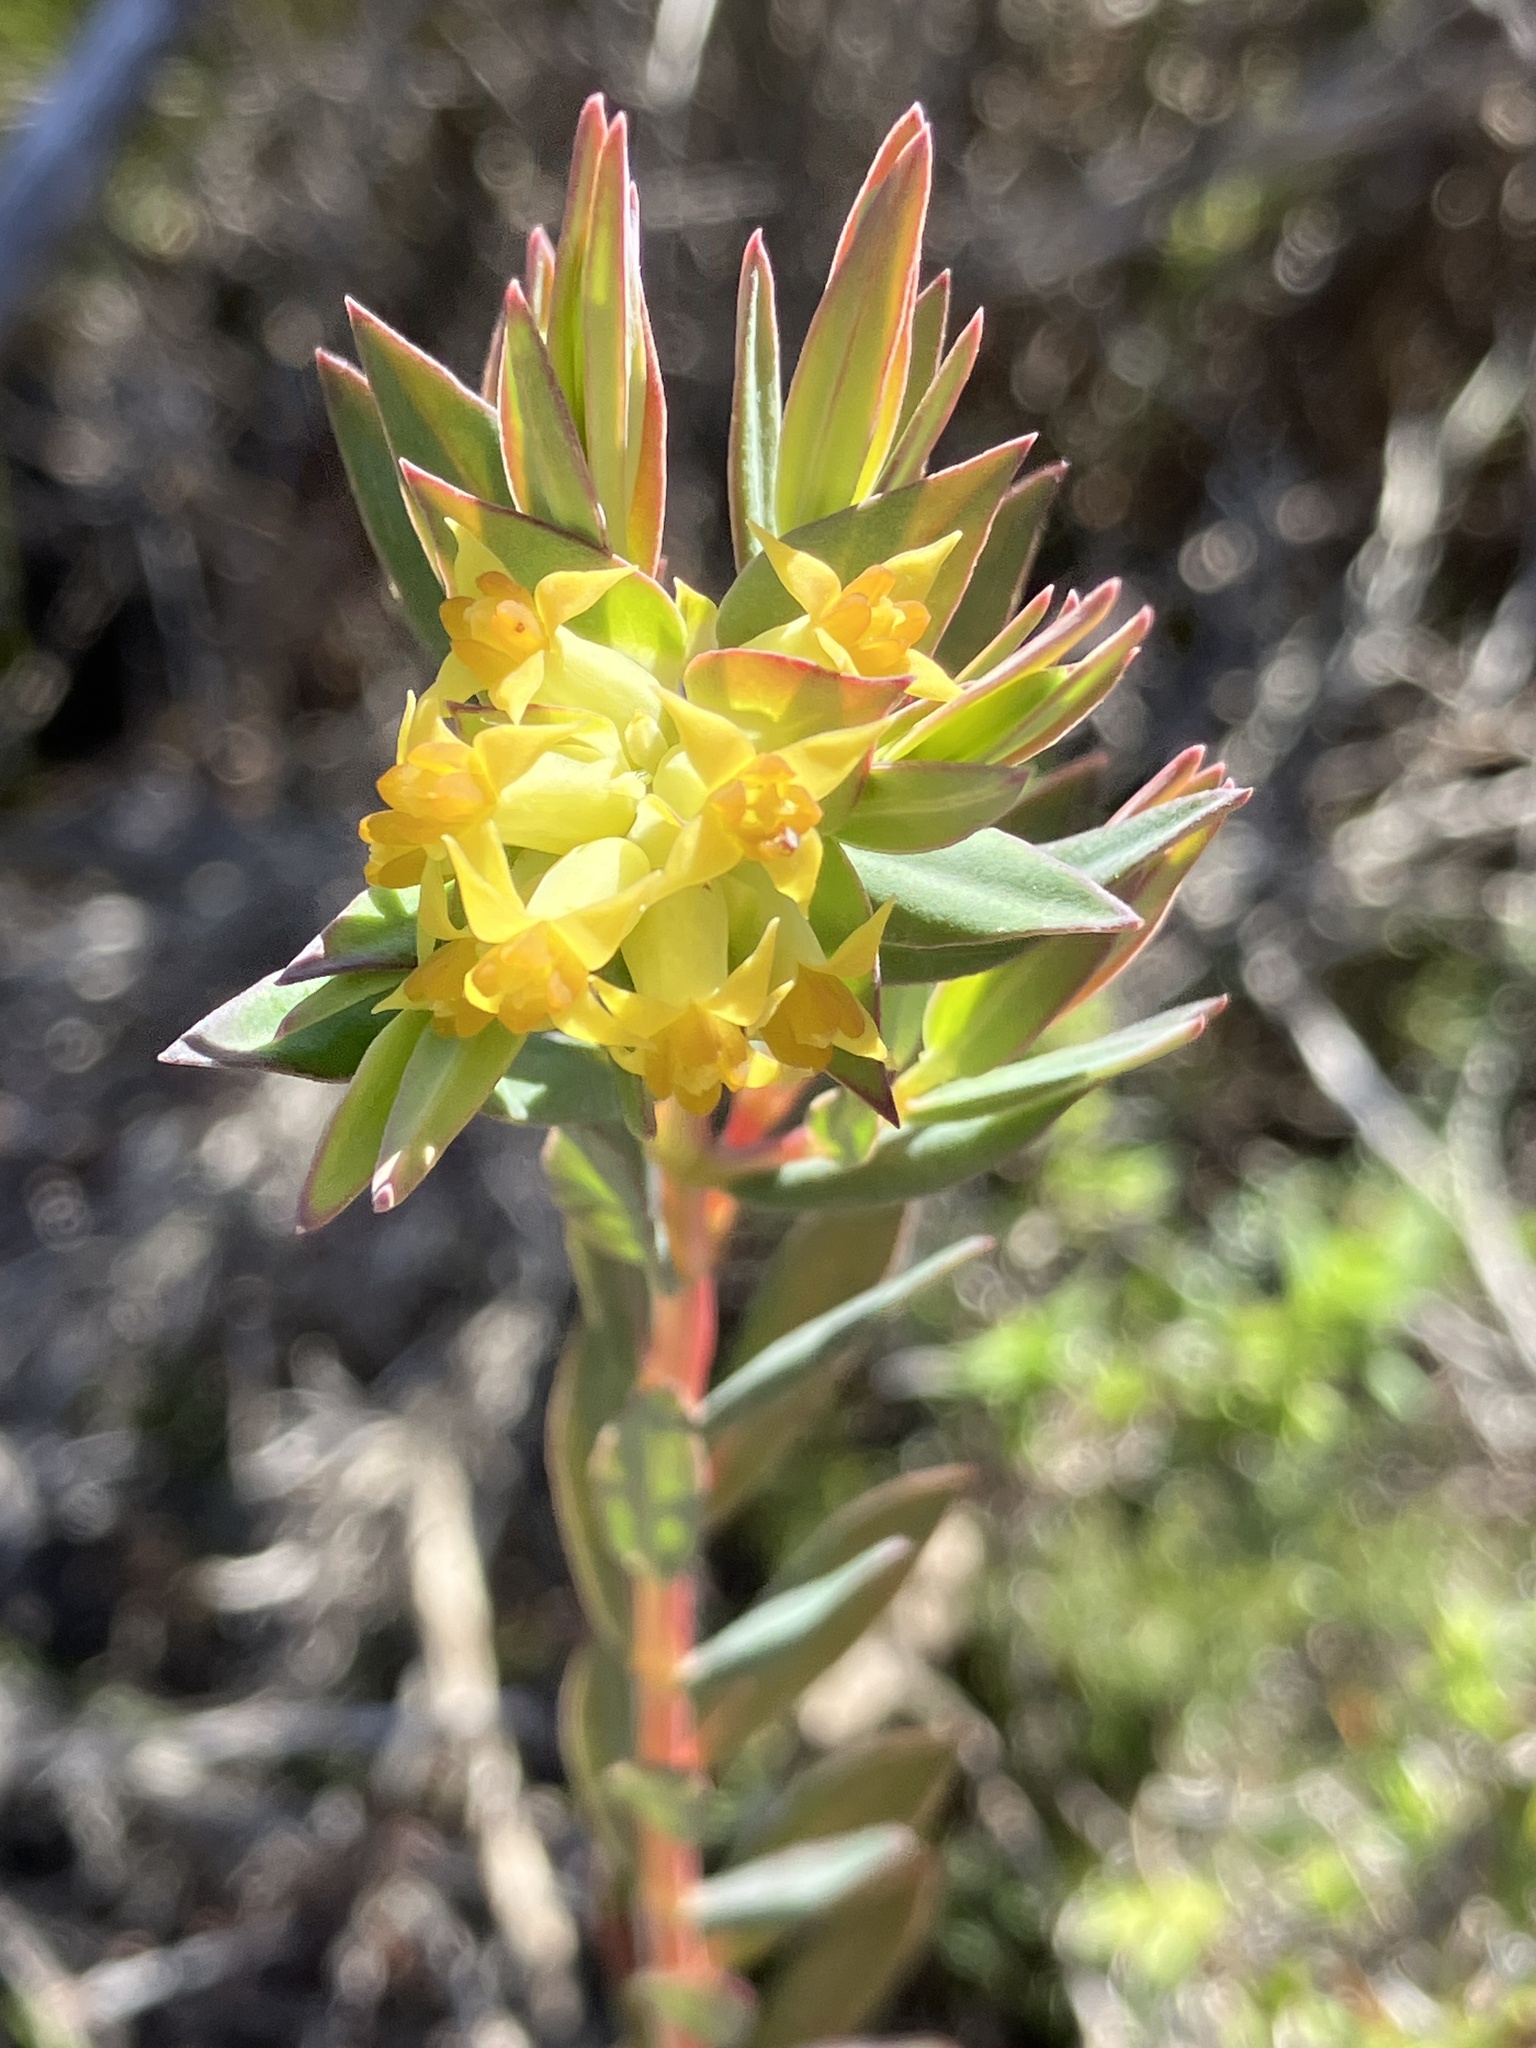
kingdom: Plantae
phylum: Tracheophyta
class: Magnoliopsida
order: Myrtales
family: Penaeaceae
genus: Penaea
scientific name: Penaea acutifolia
